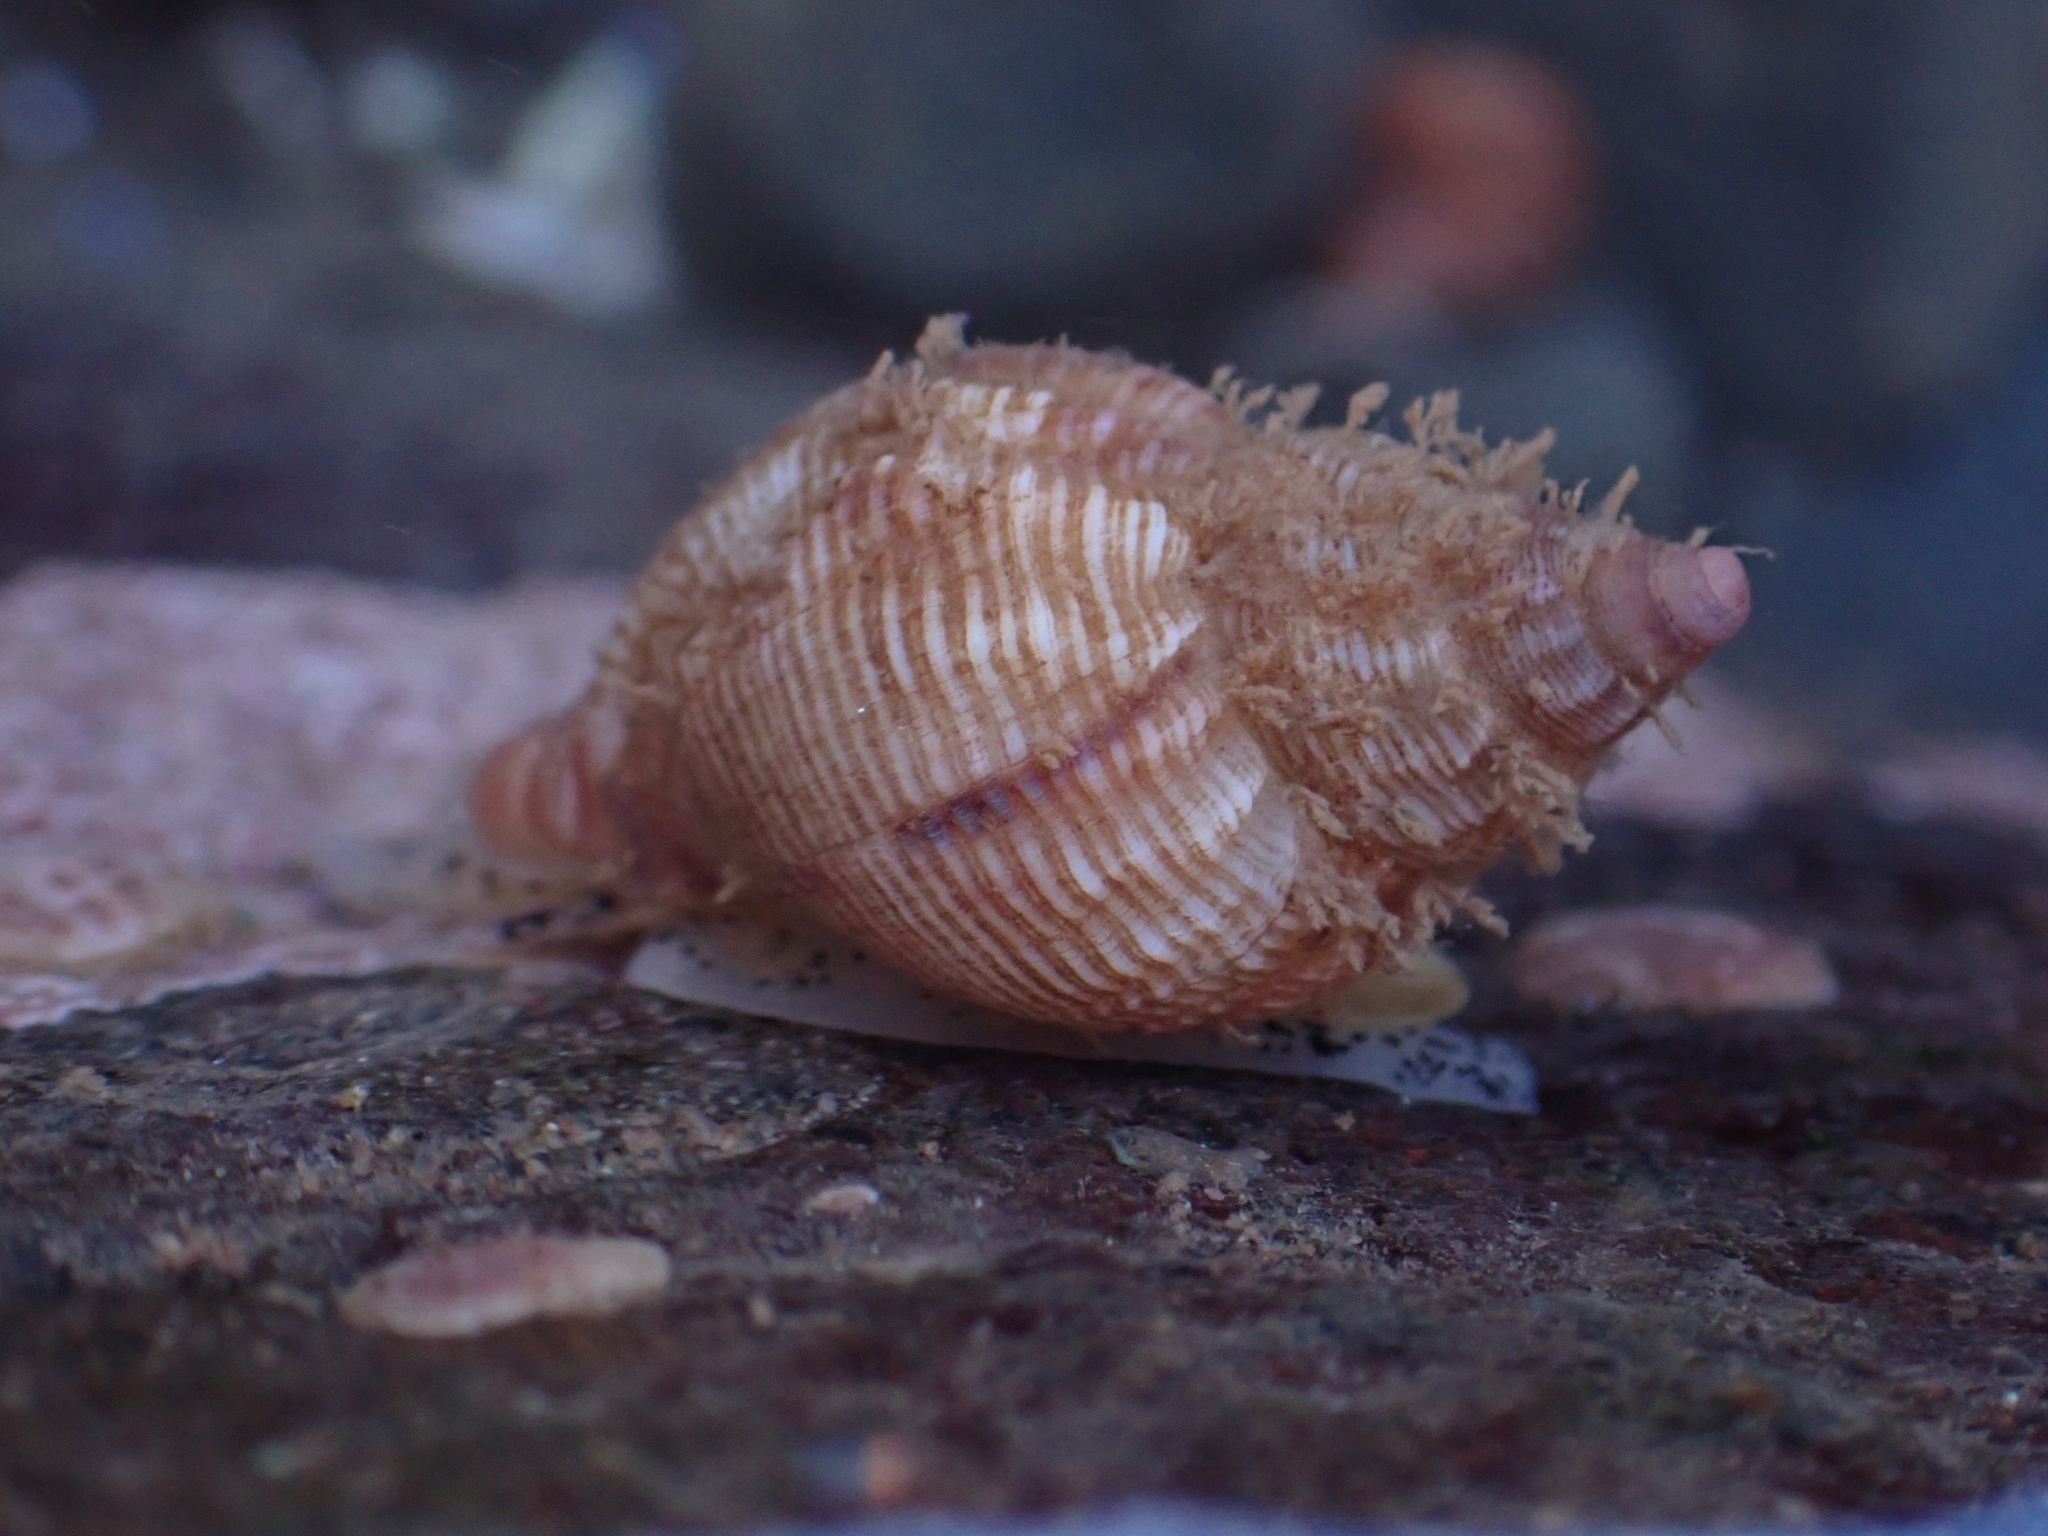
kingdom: Animalia
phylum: Mollusca
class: Gastropoda
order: Neogastropoda
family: Buccinidae
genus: Buccinum
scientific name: Buccinum undatum
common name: Common whelk
